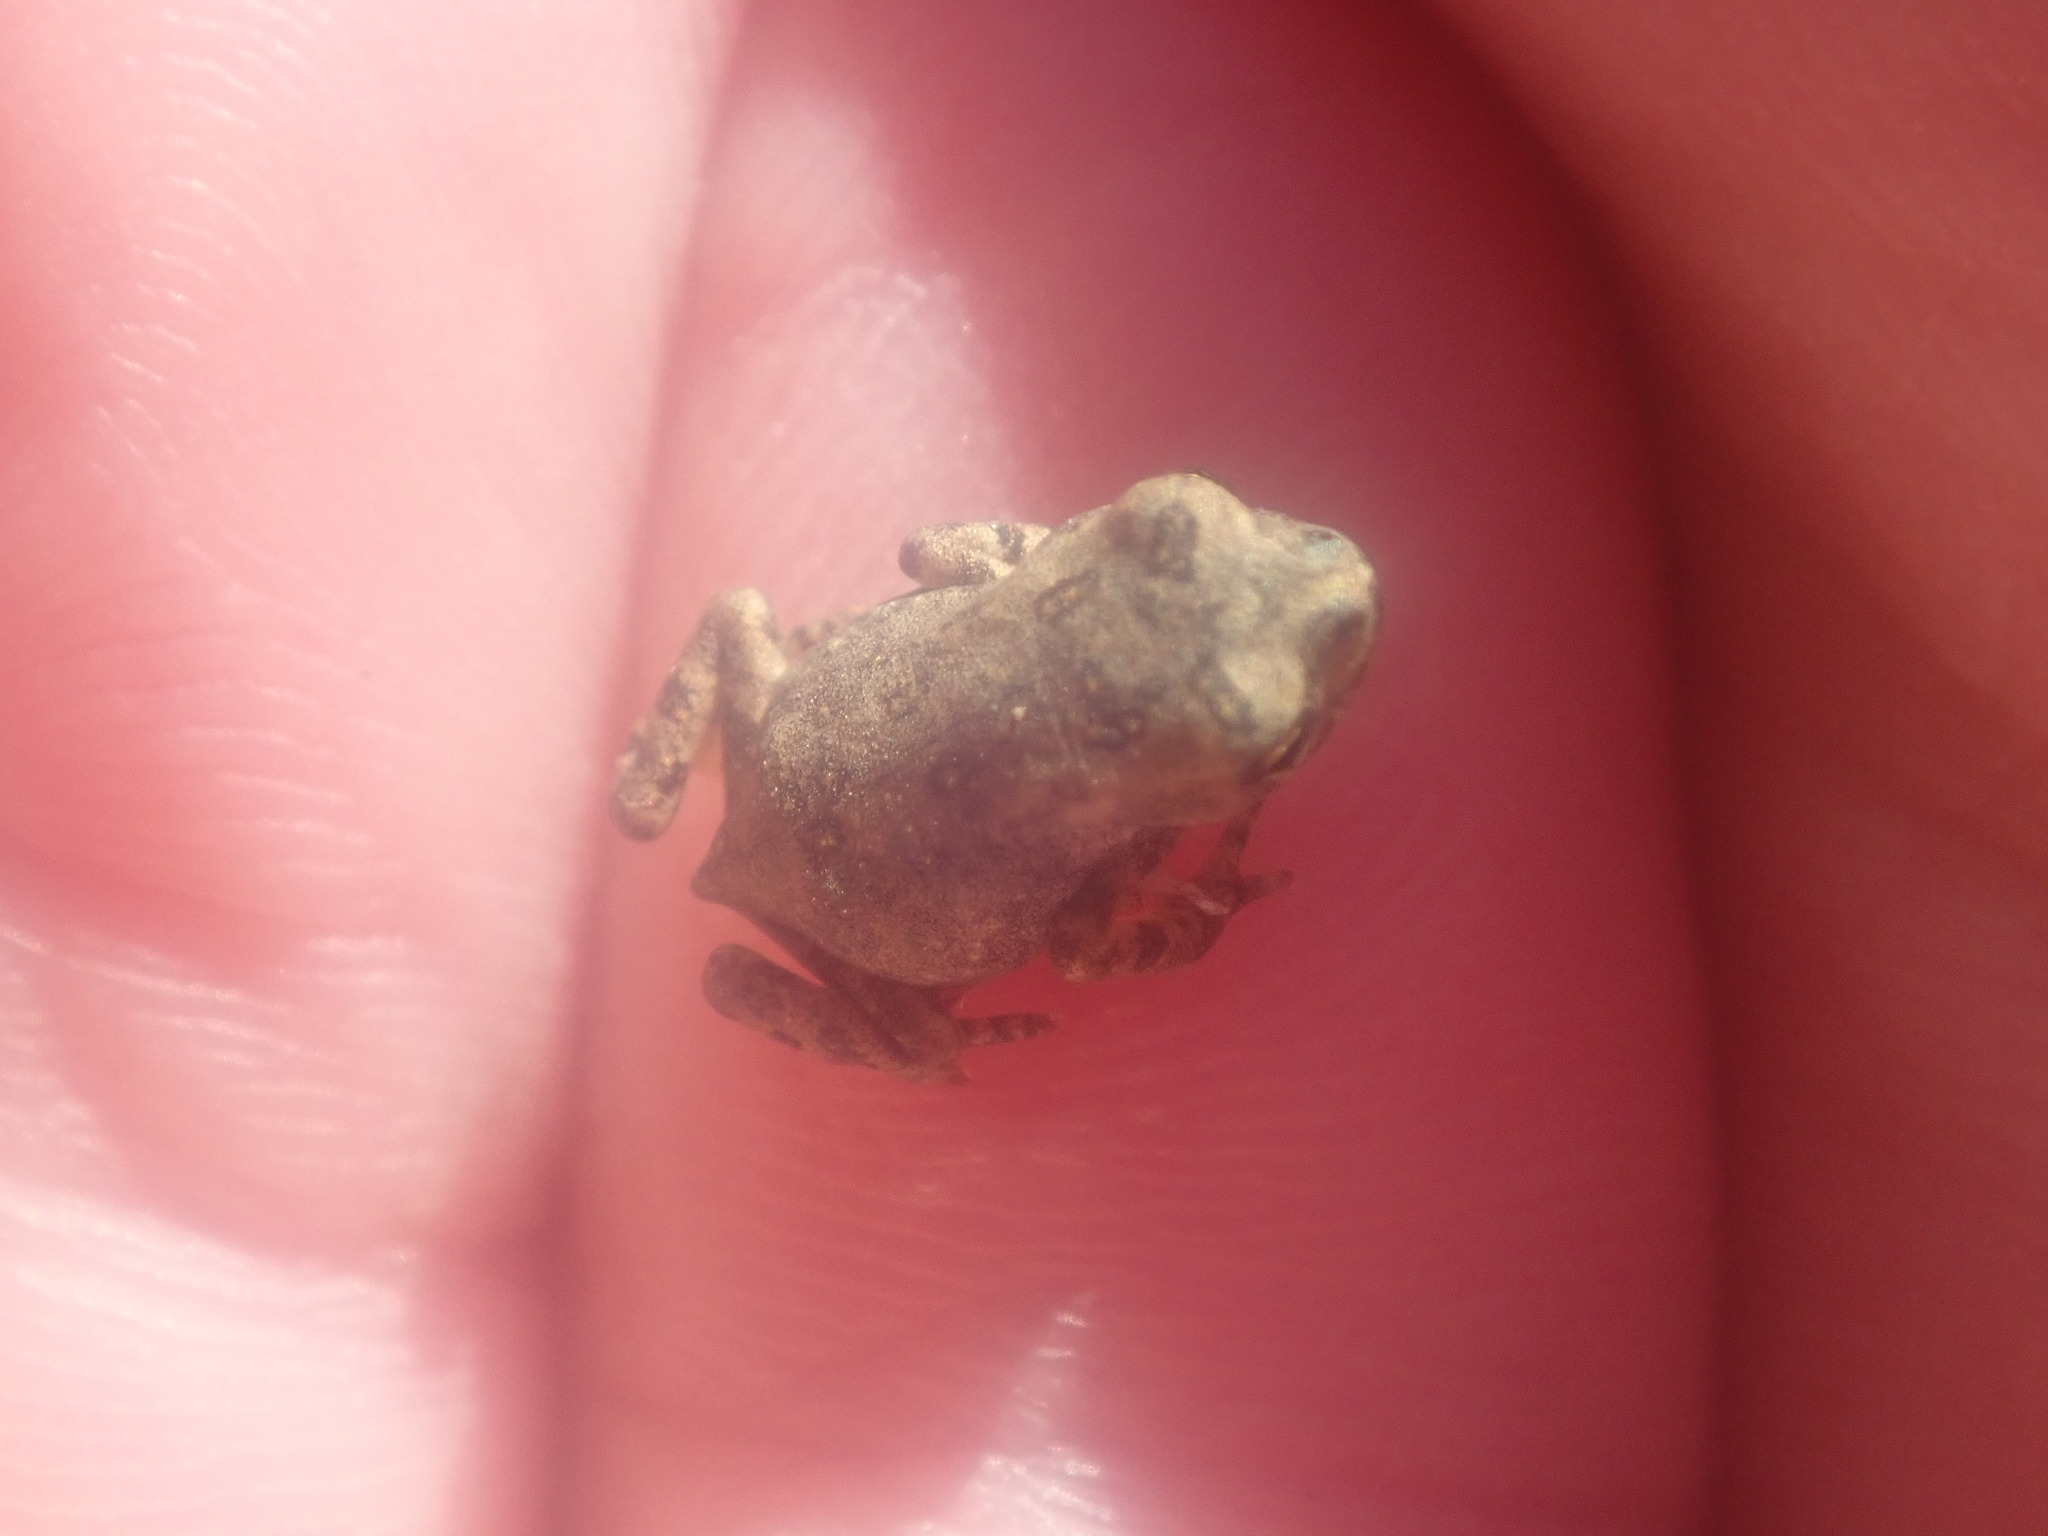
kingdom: Animalia
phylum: Chordata
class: Amphibia
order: Anura
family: Bufonidae
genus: Anaxyrus
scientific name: Anaxyrus
